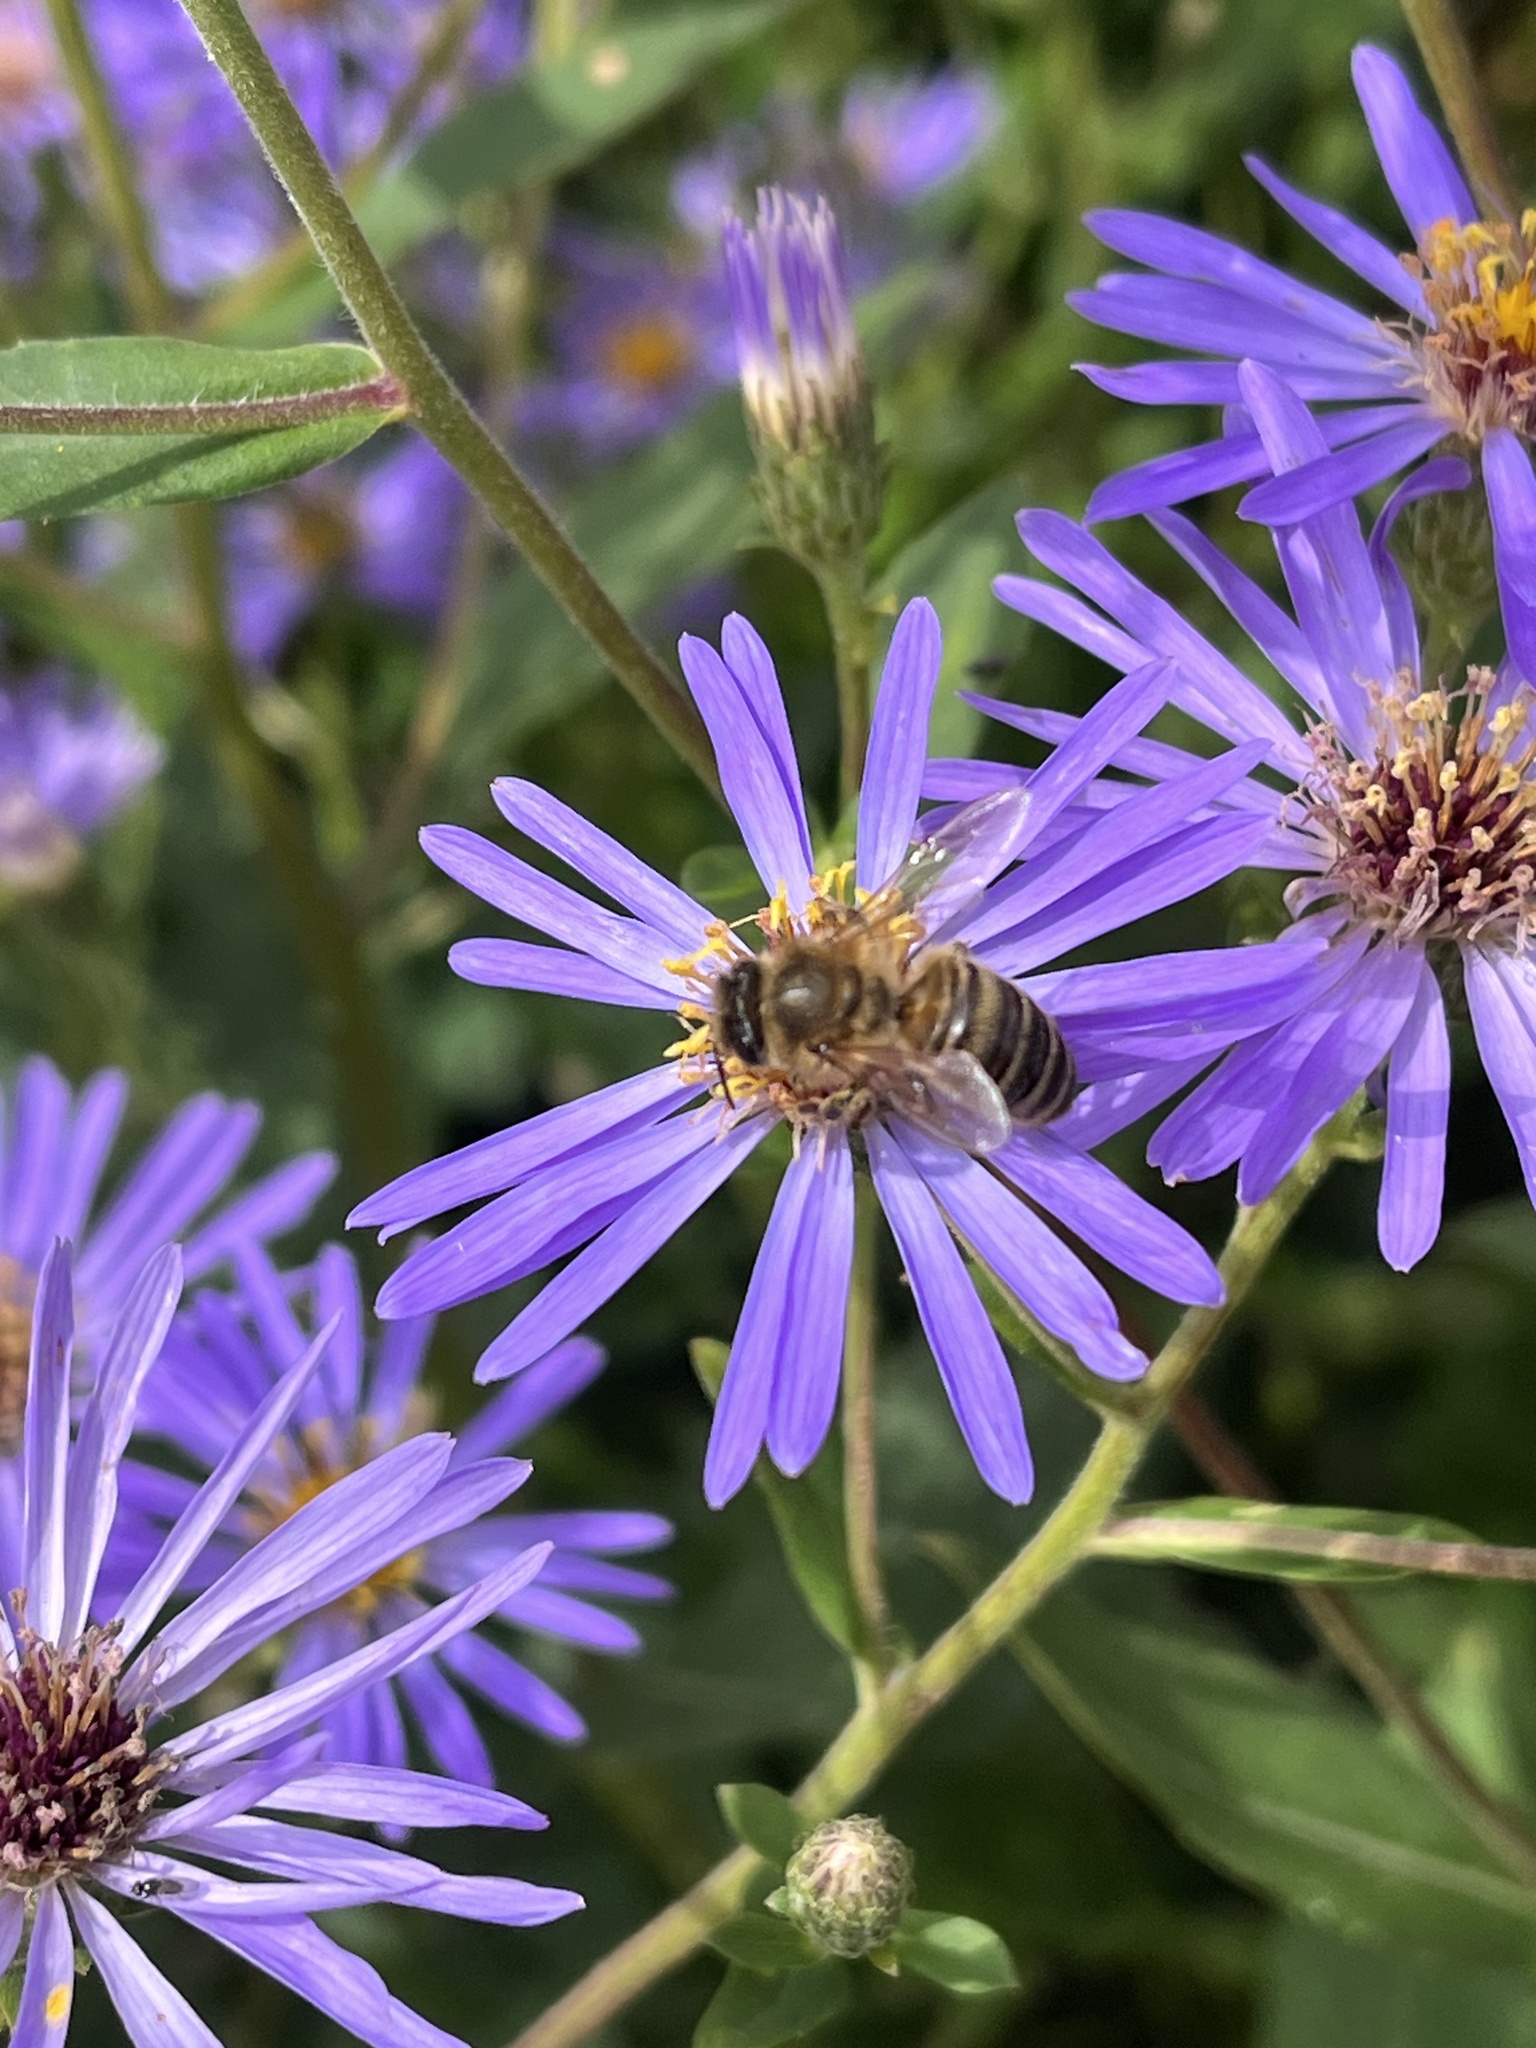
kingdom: Animalia
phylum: Arthropoda
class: Insecta
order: Hymenoptera
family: Apidae
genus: Apis
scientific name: Apis mellifera
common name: Honey bee
